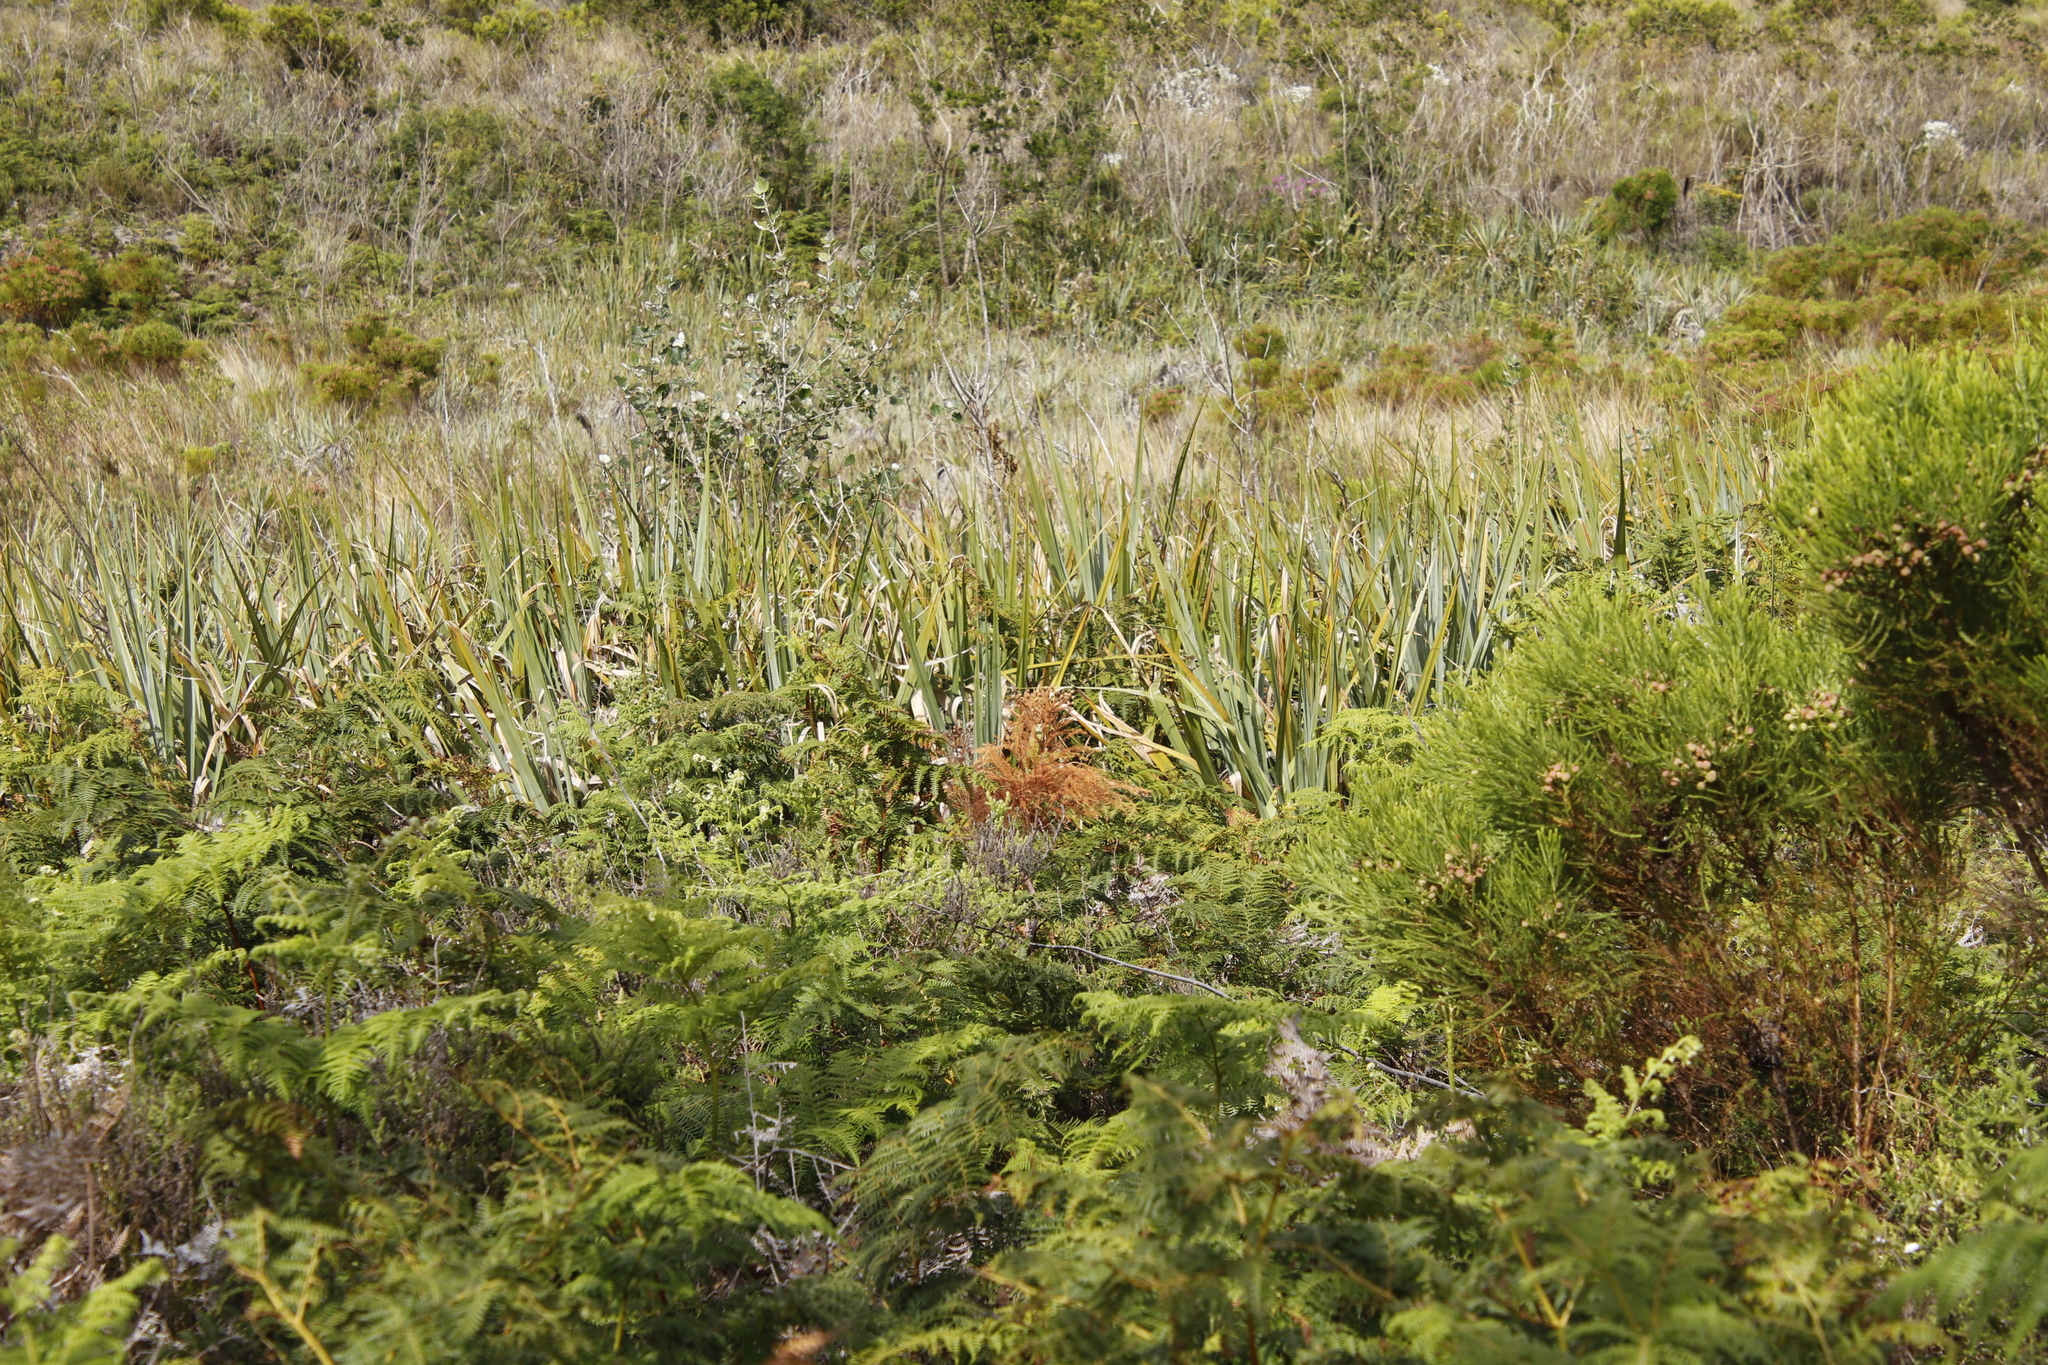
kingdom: Plantae
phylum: Tracheophyta
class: Liliopsida
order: Poales
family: Thurniaceae
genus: Prionium
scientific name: Prionium serratum
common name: Palmiet
